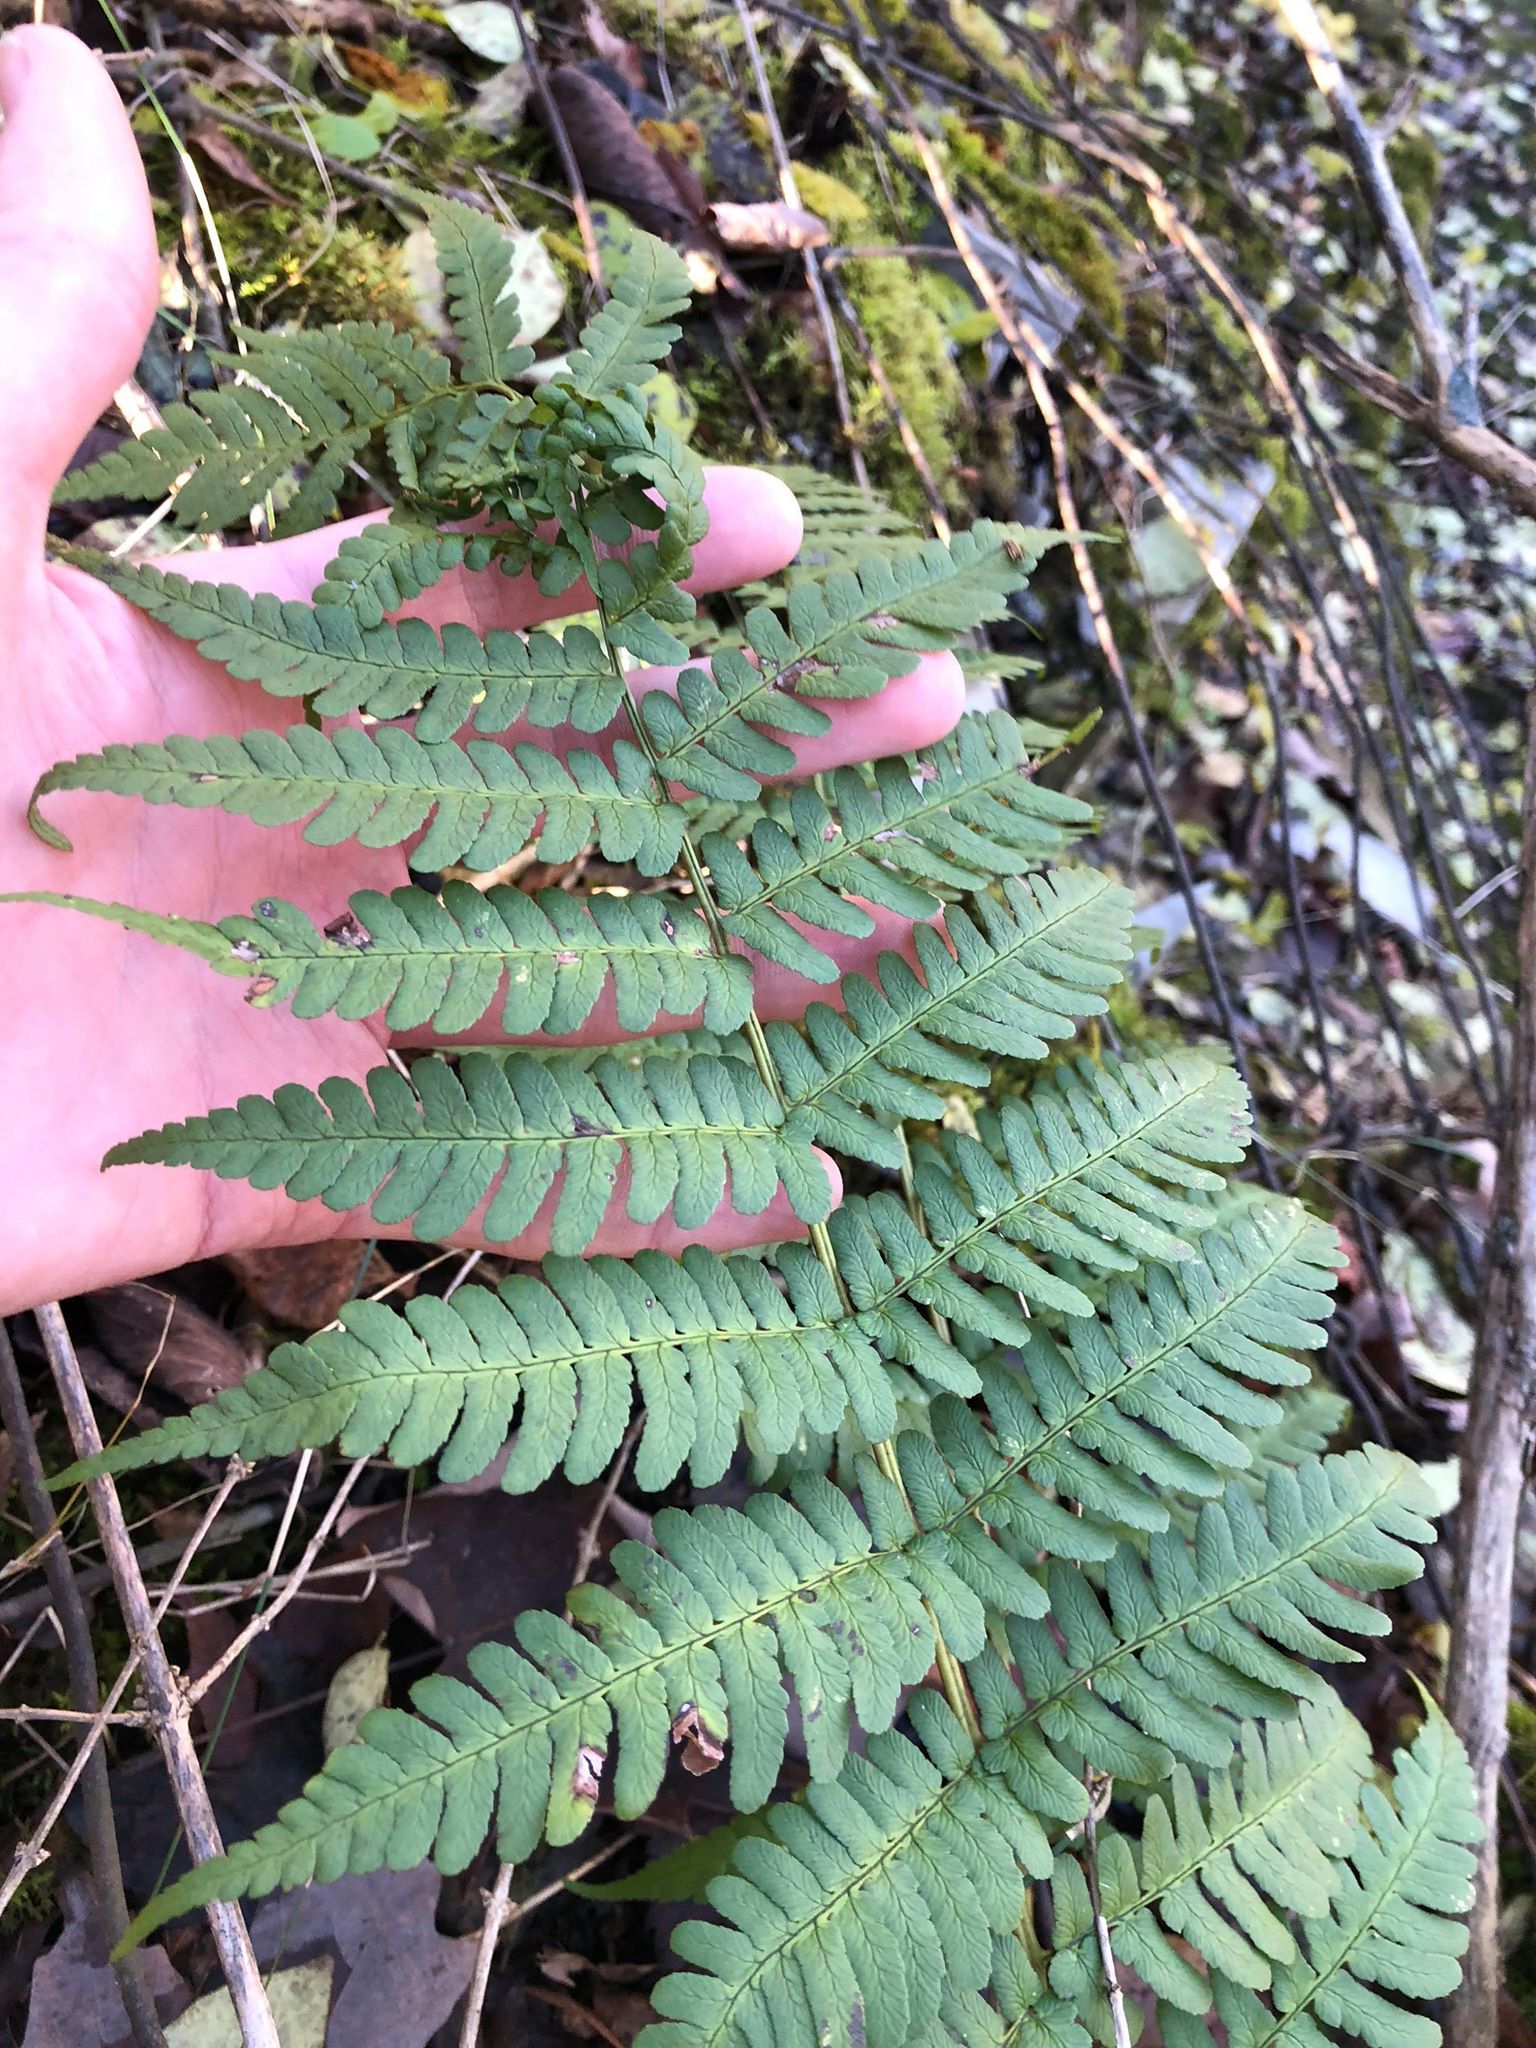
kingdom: Plantae
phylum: Tracheophyta
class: Polypodiopsida
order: Polypodiales
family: Dryopteridaceae
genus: Dryopteris
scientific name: Dryopteris marginalis
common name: Marginal wood fern
